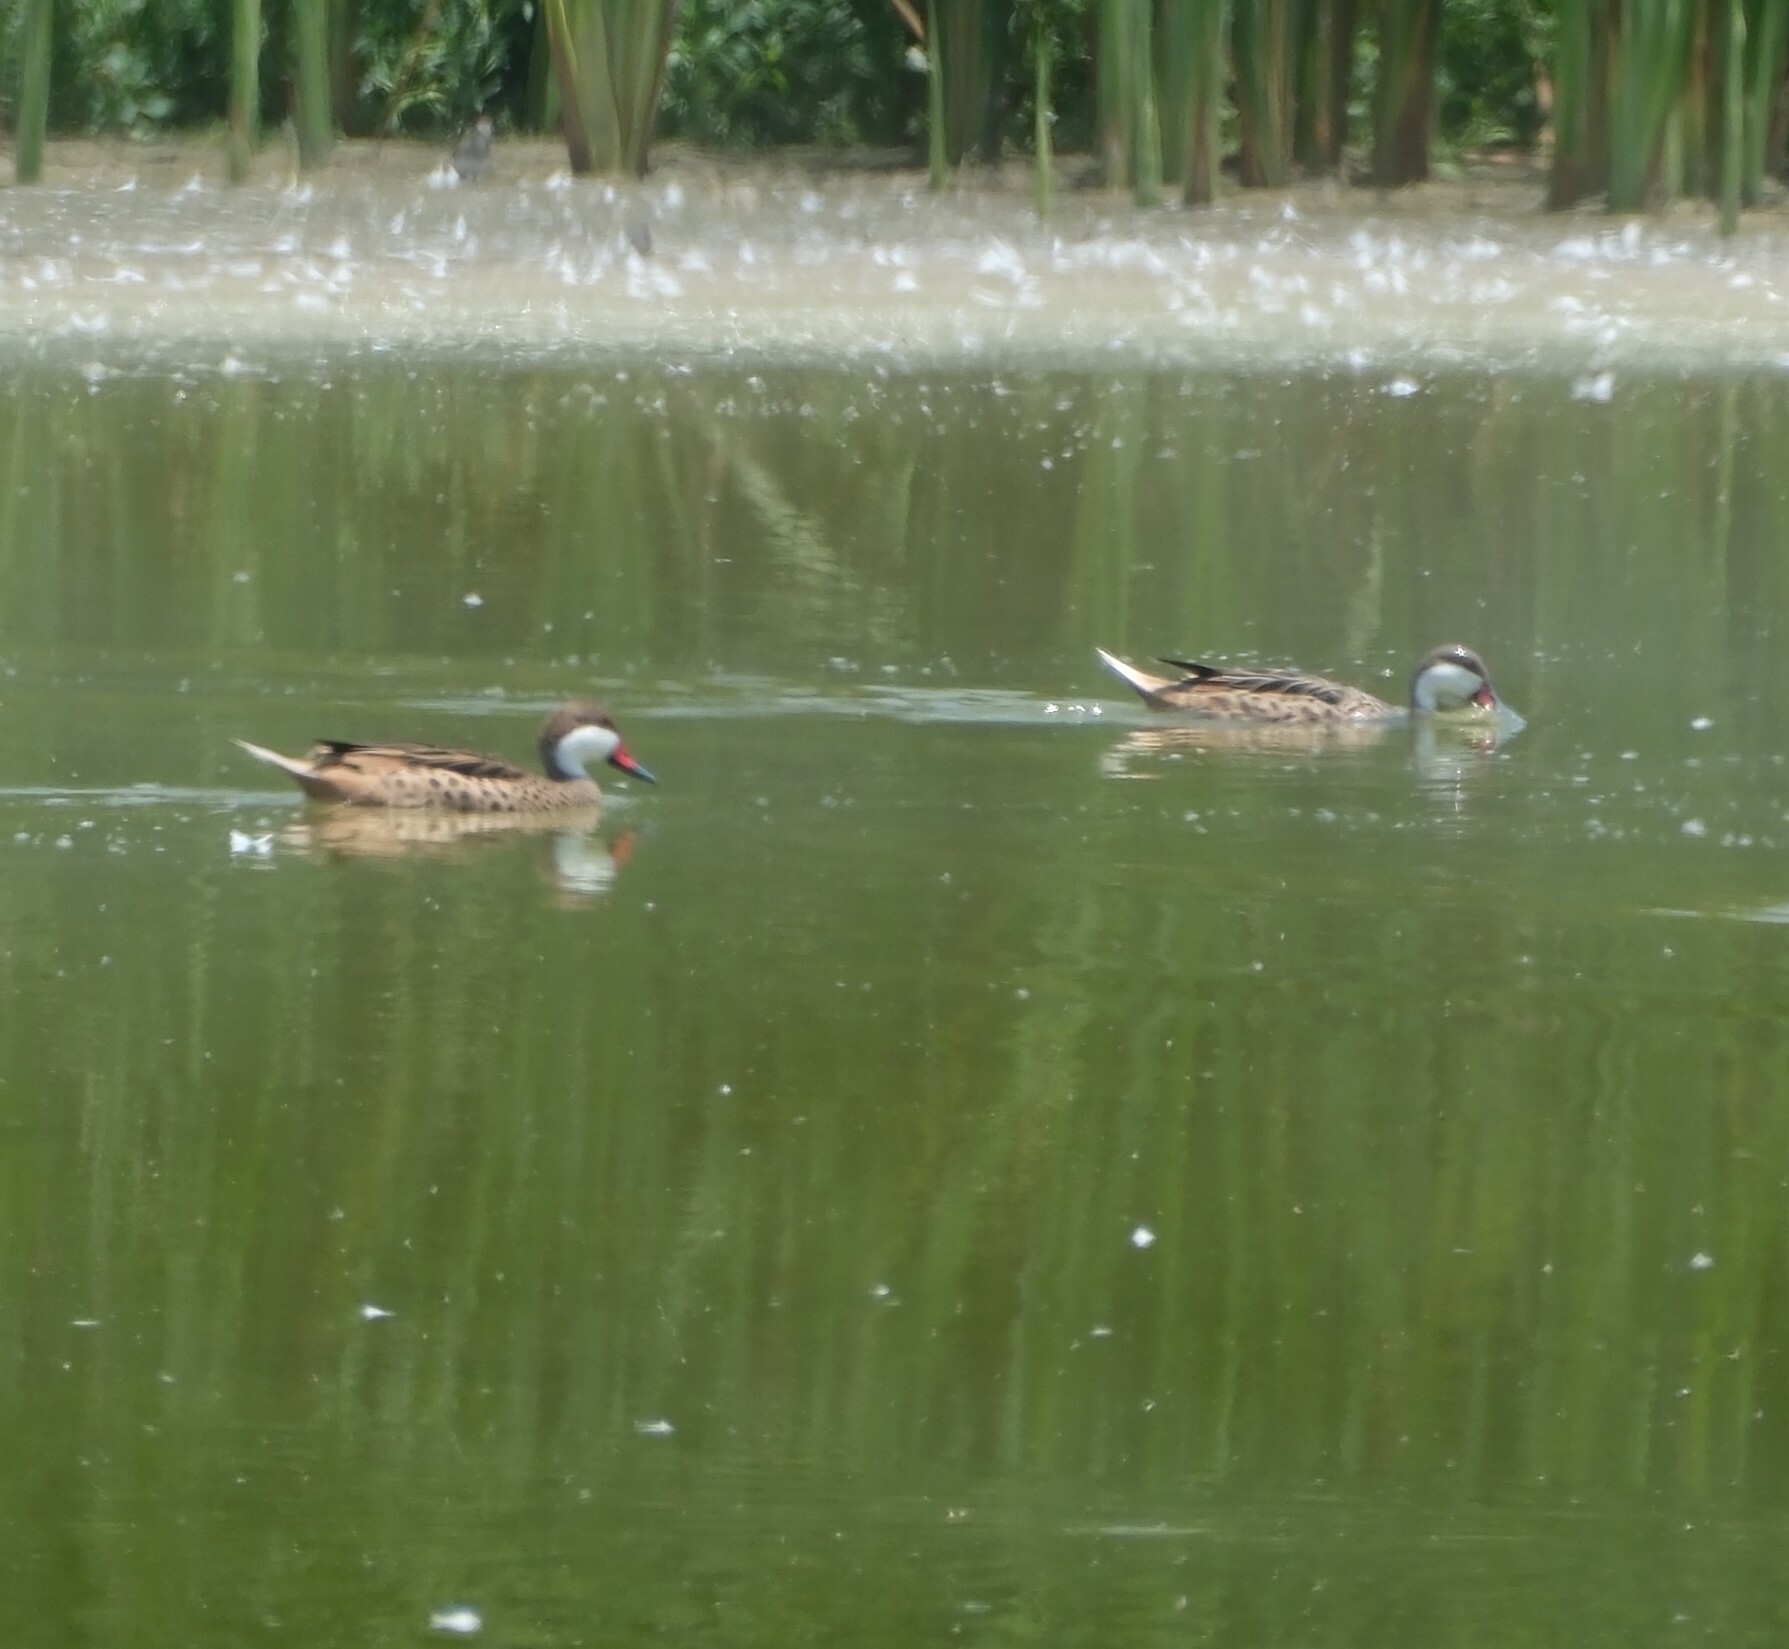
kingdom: Animalia
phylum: Chordata
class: Aves
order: Anseriformes
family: Anatidae
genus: Anas
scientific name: Anas bahamensis
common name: White-cheeked pintail
